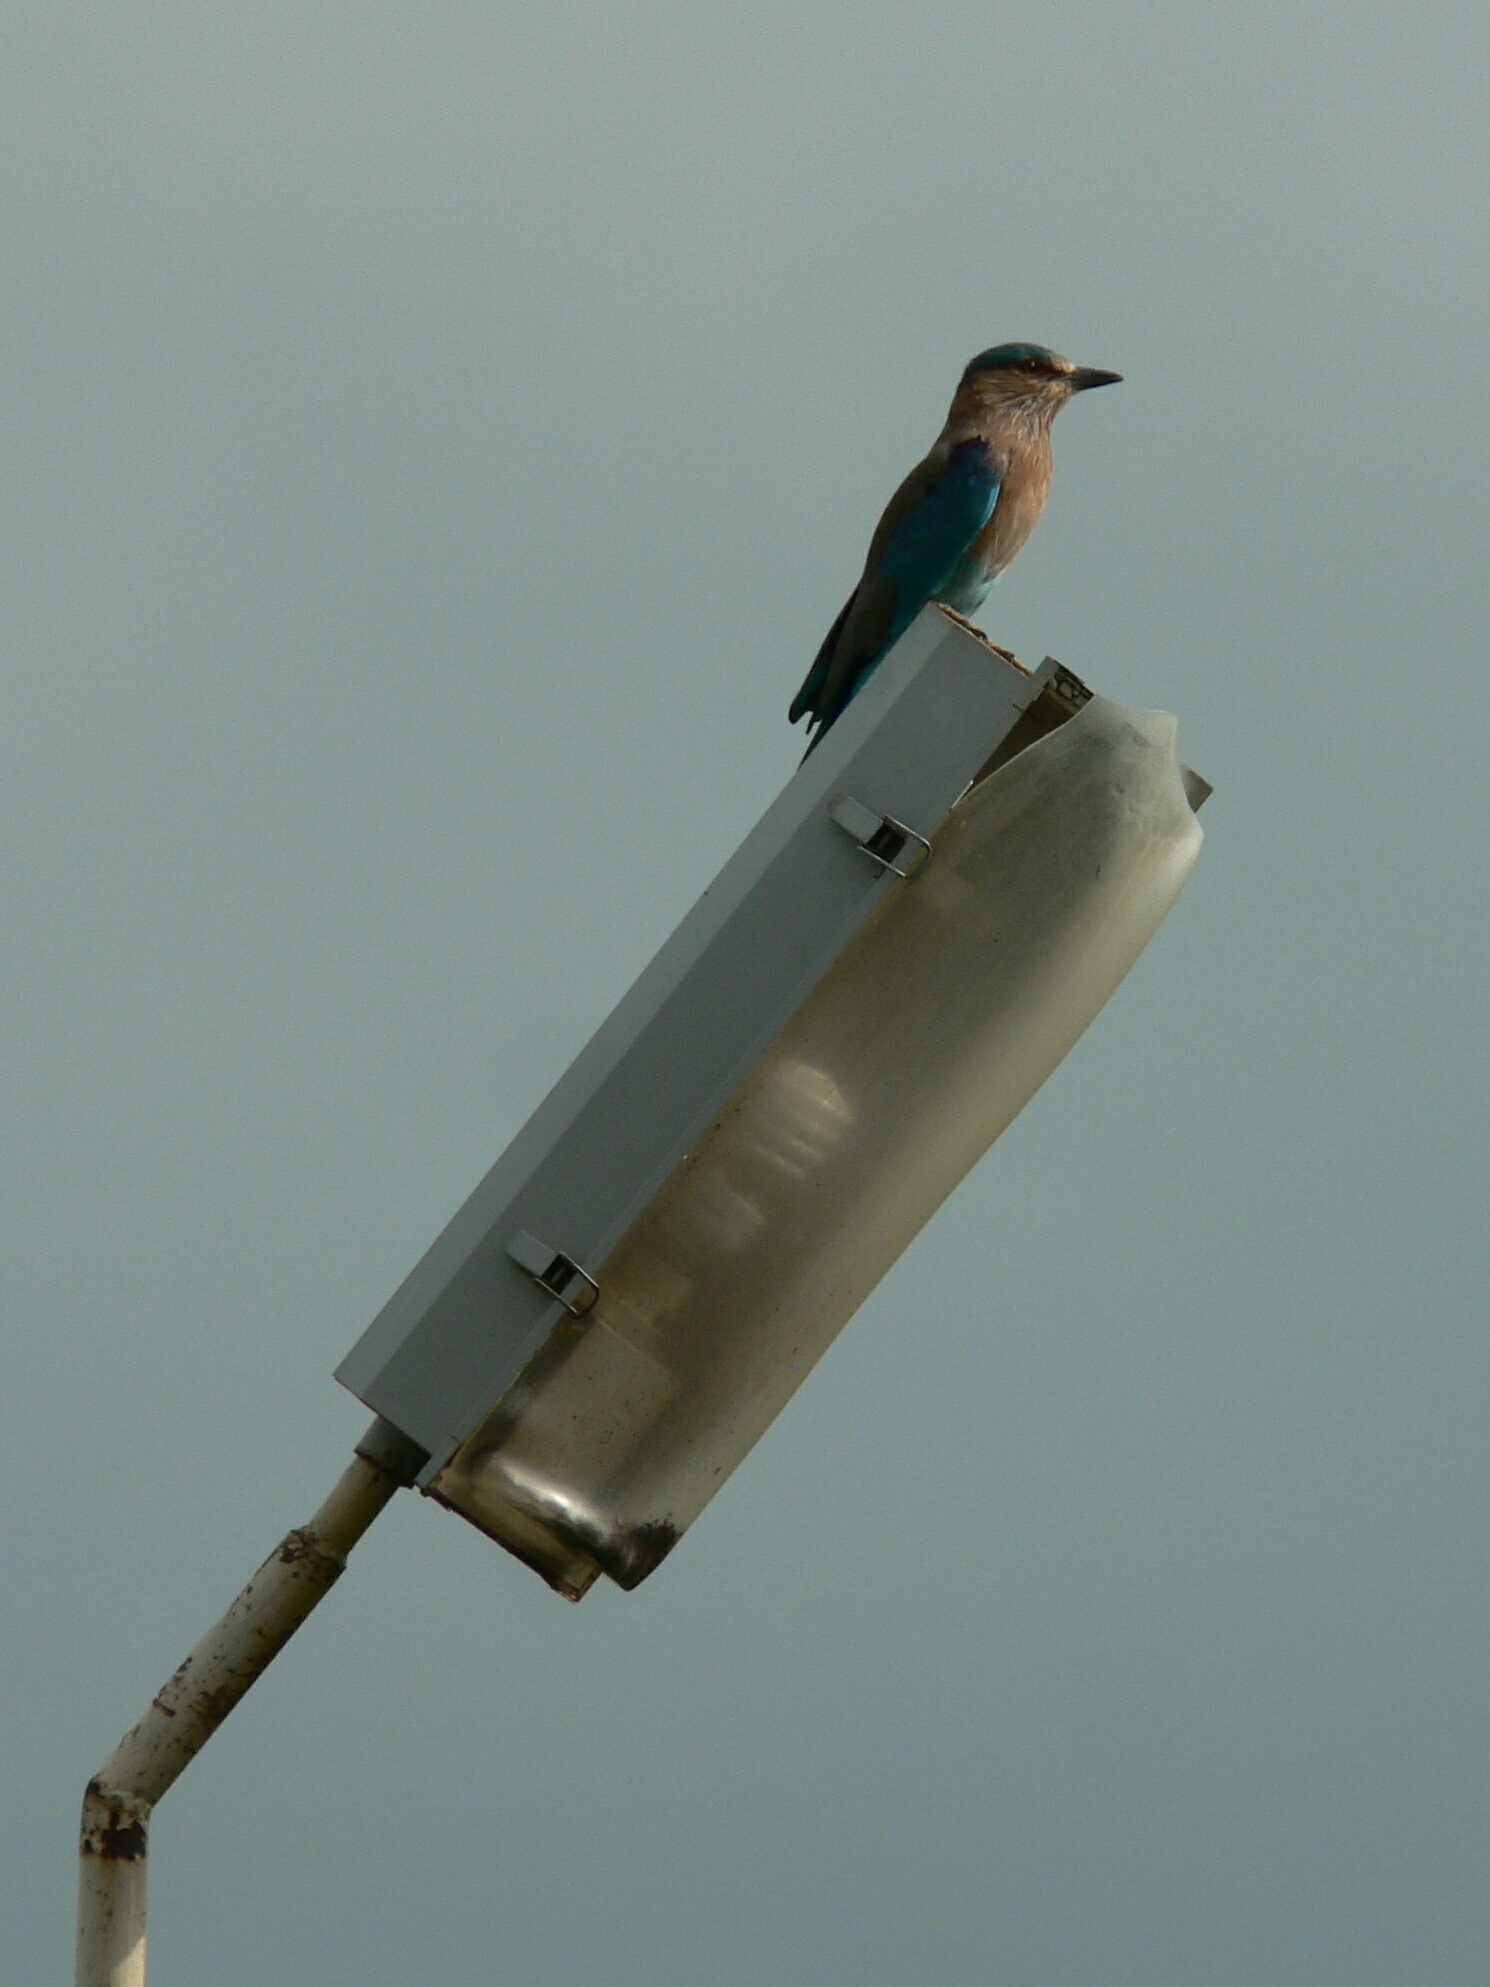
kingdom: Animalia
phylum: Chordata
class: Aves
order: Coraciiformes
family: Coraciidae
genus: Coracias
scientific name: Coracias benghalensis
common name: Indian roller
